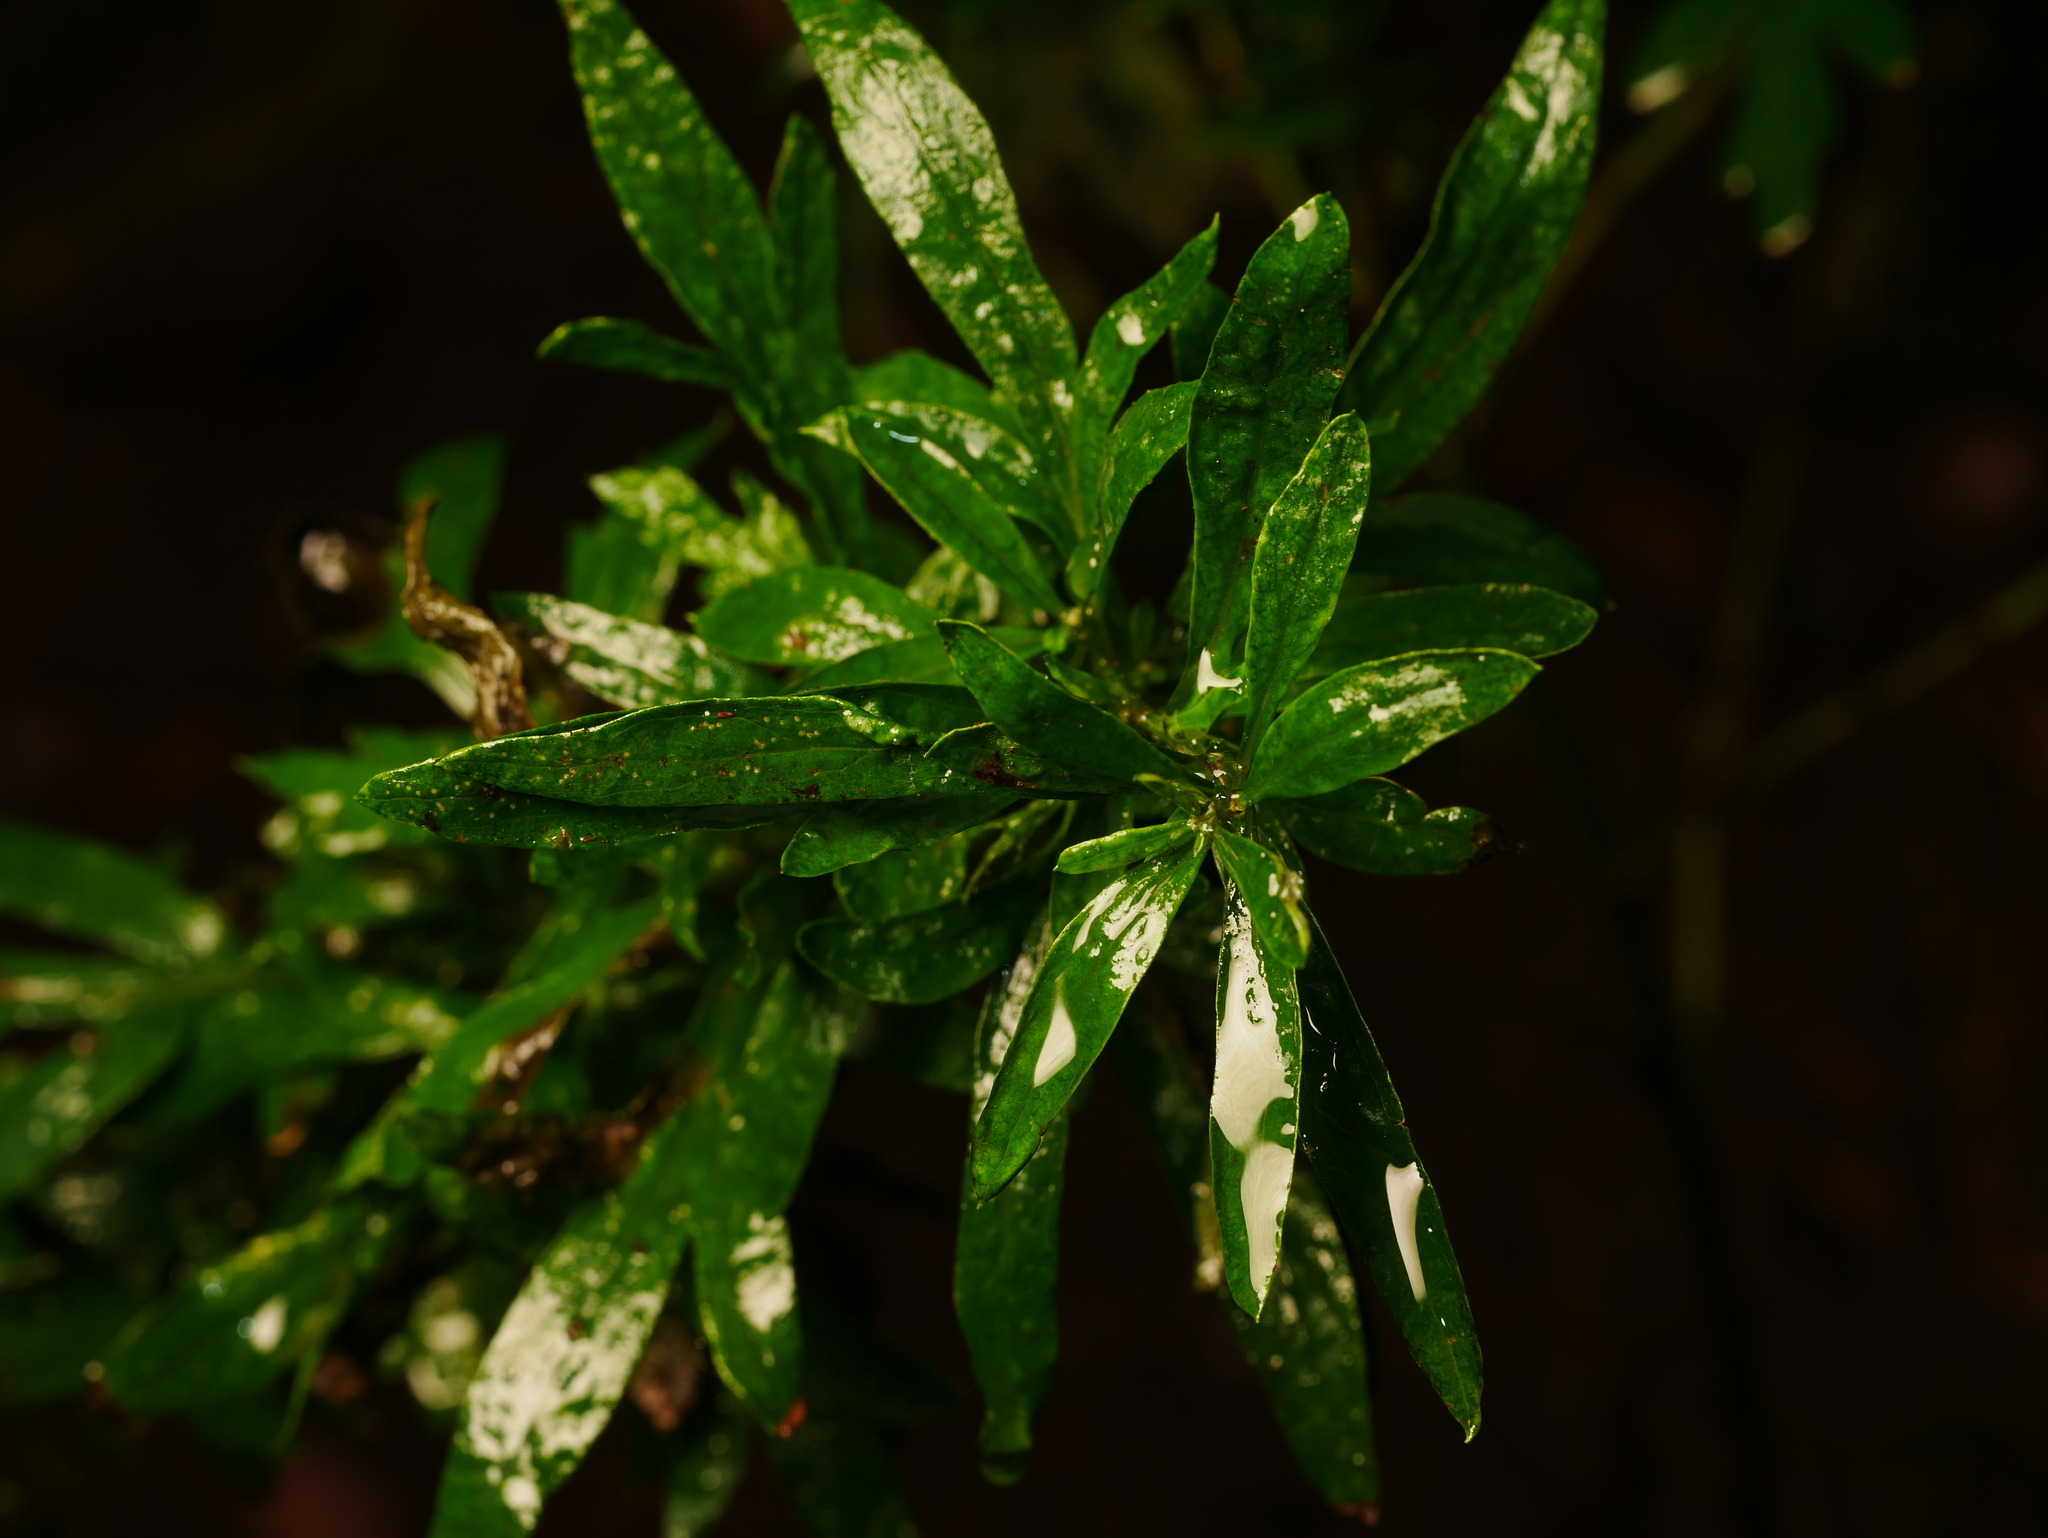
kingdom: Plantae
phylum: Tracheophyta
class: Magnoliopsida
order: Asterales
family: Asteraceae
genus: Artemisia
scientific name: Artemisia vulgaris
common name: Mugwort
